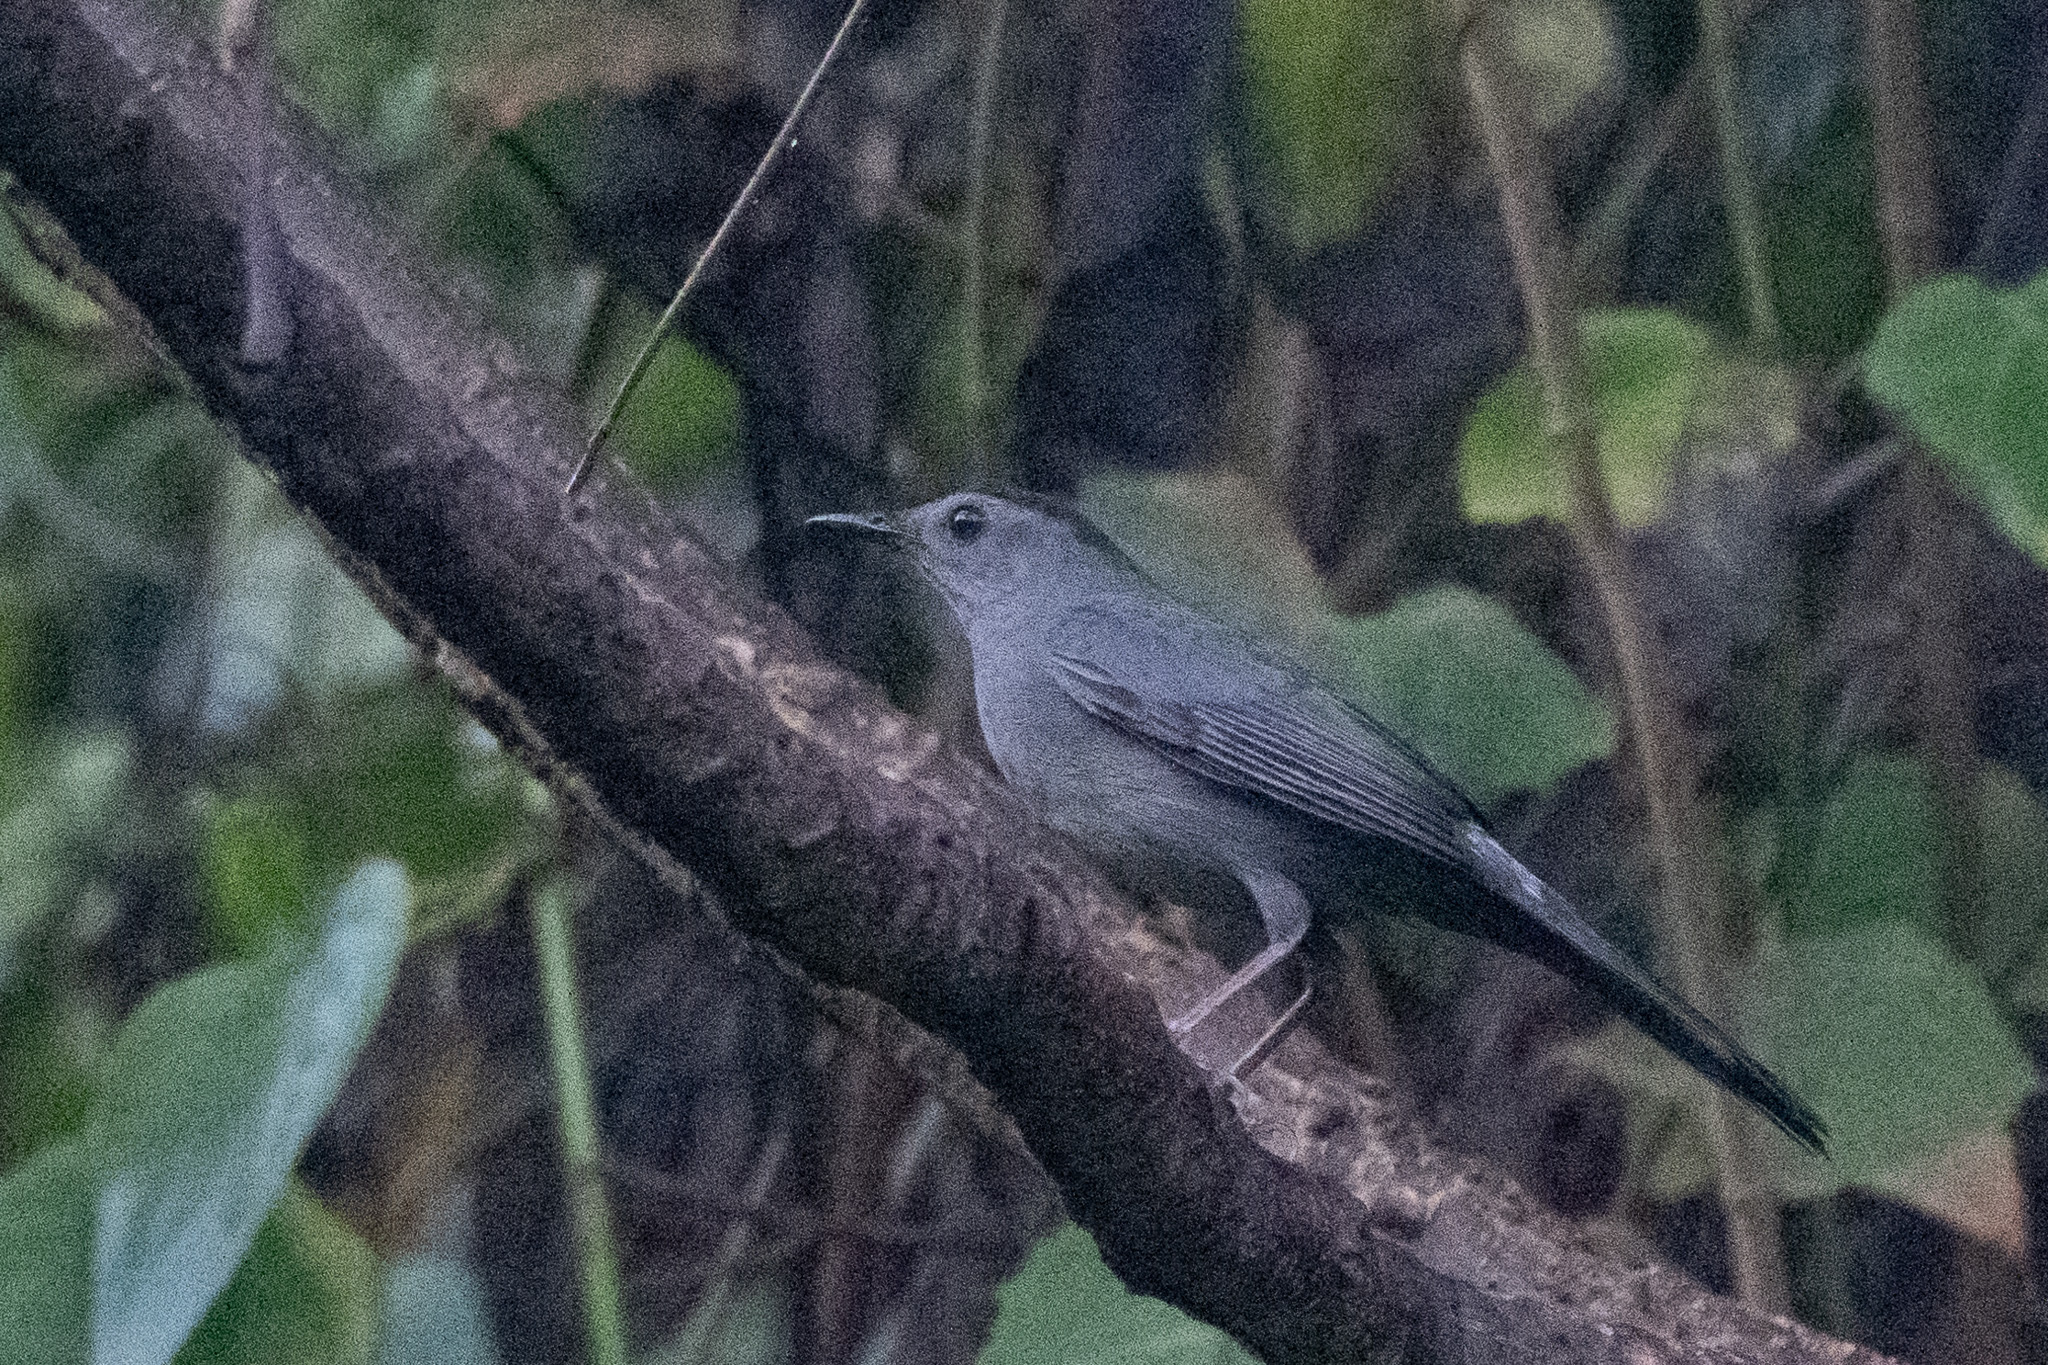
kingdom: Animalia
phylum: Chordata
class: Aves
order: Passeriformes
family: Mimidae
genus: Dumetella
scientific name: Dumetella carolinensis
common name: Gray catbird
